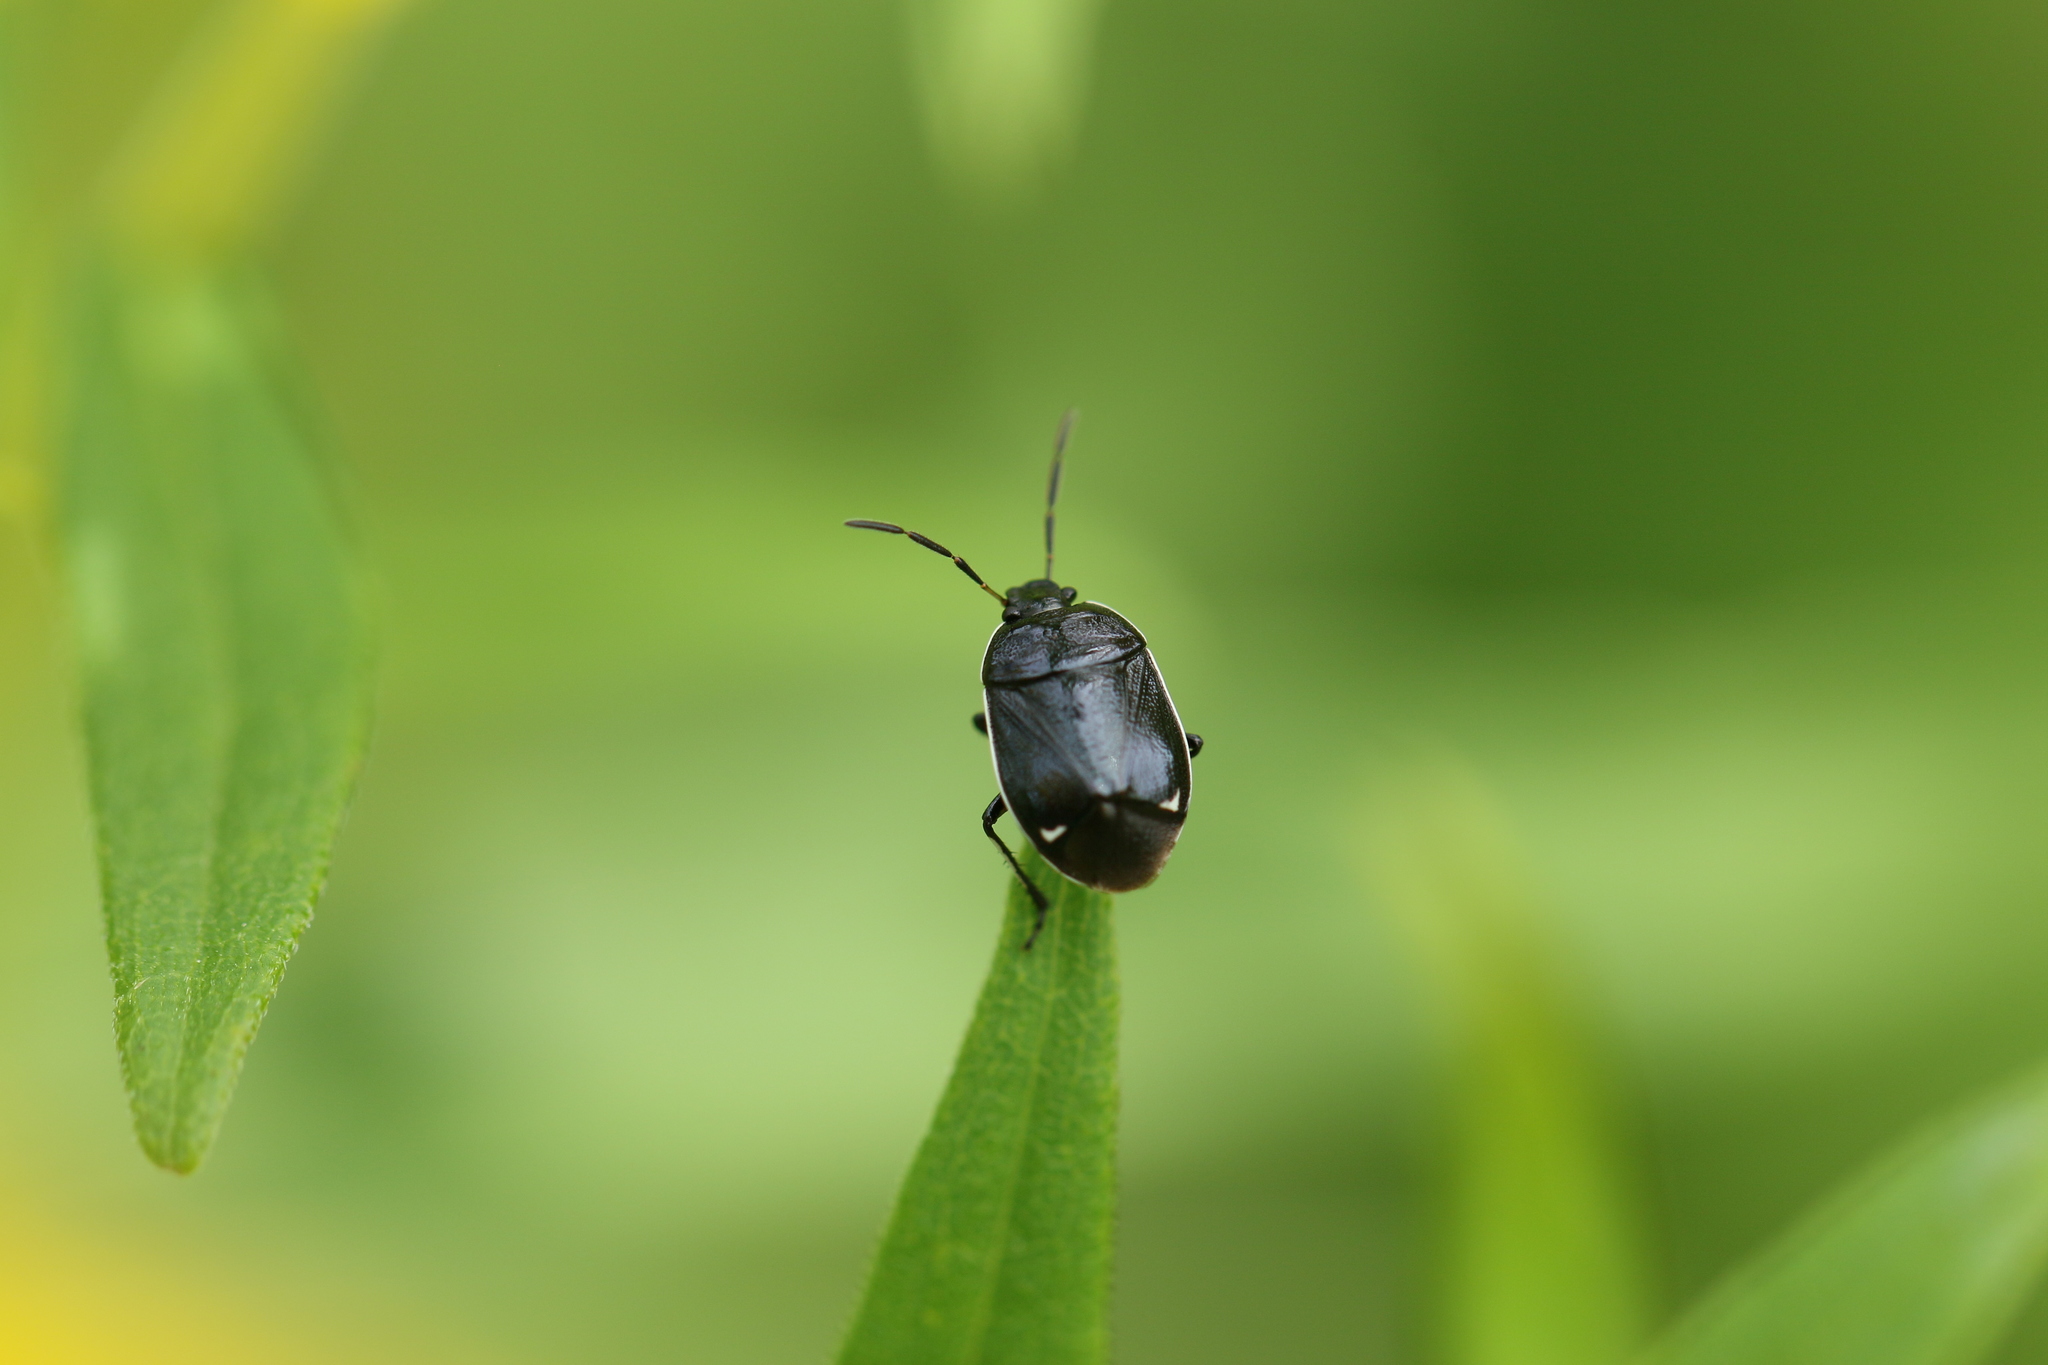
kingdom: Animalia
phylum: Arthropoda
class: Insecta
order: Hemiptera
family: Cydnidae
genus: Sehirus
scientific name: Sehirus cinctus
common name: White-margined burrower bug
